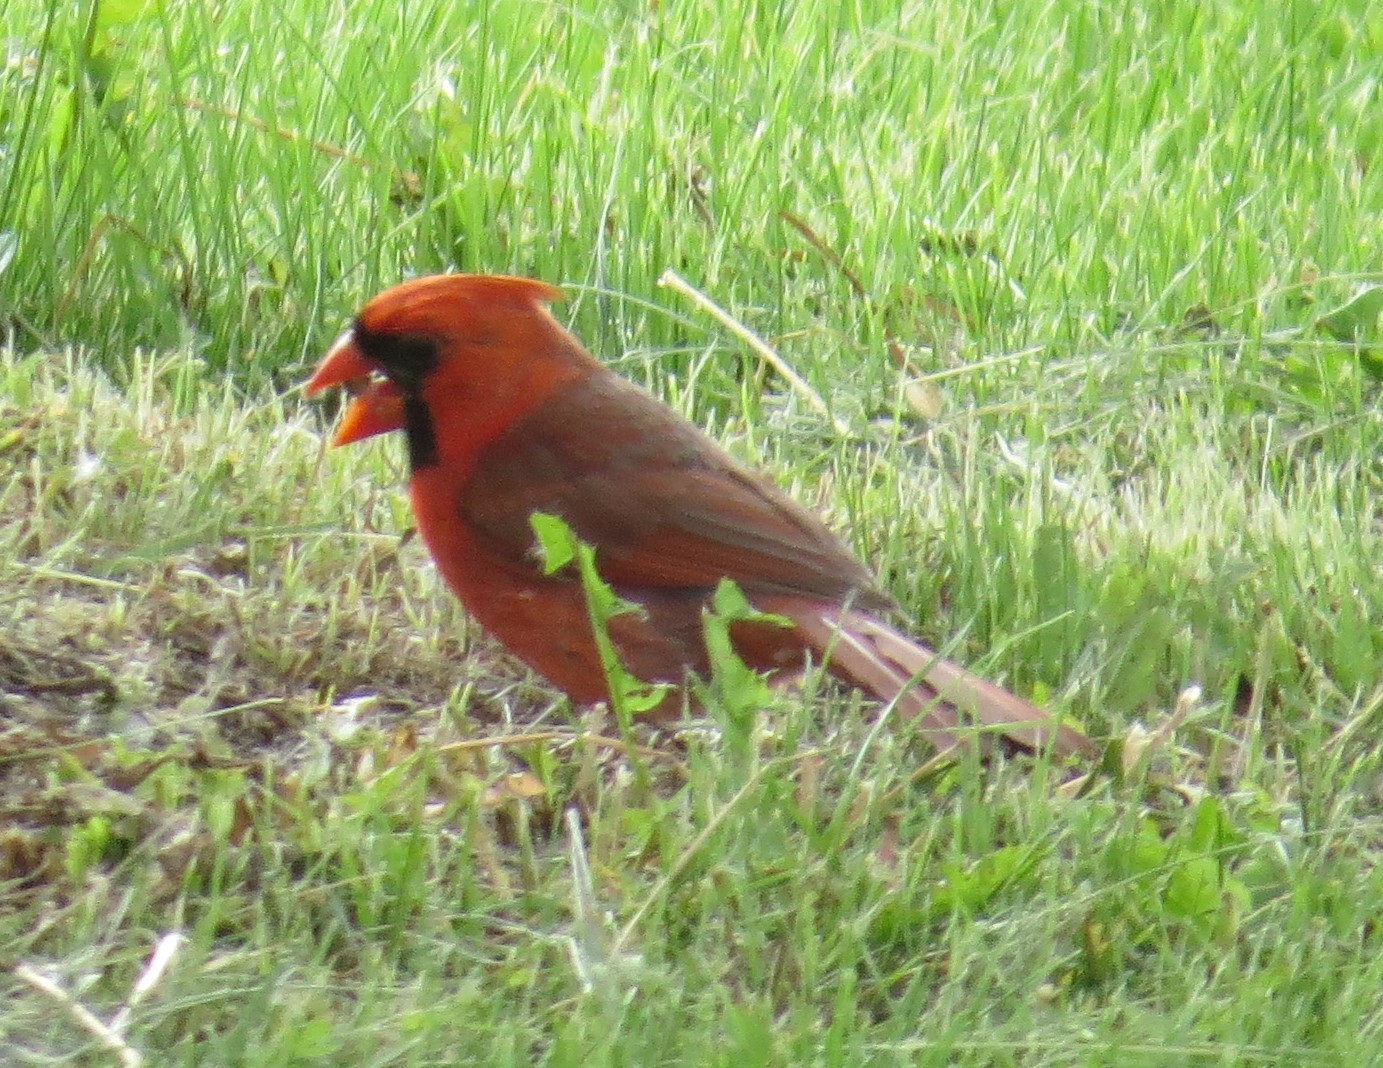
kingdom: Animalia
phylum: Chordata
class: Aves
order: Passeriformes
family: Cardinalidae
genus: Cardinalis
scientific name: Cardinalis cardinalis
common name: Northern cardinal
